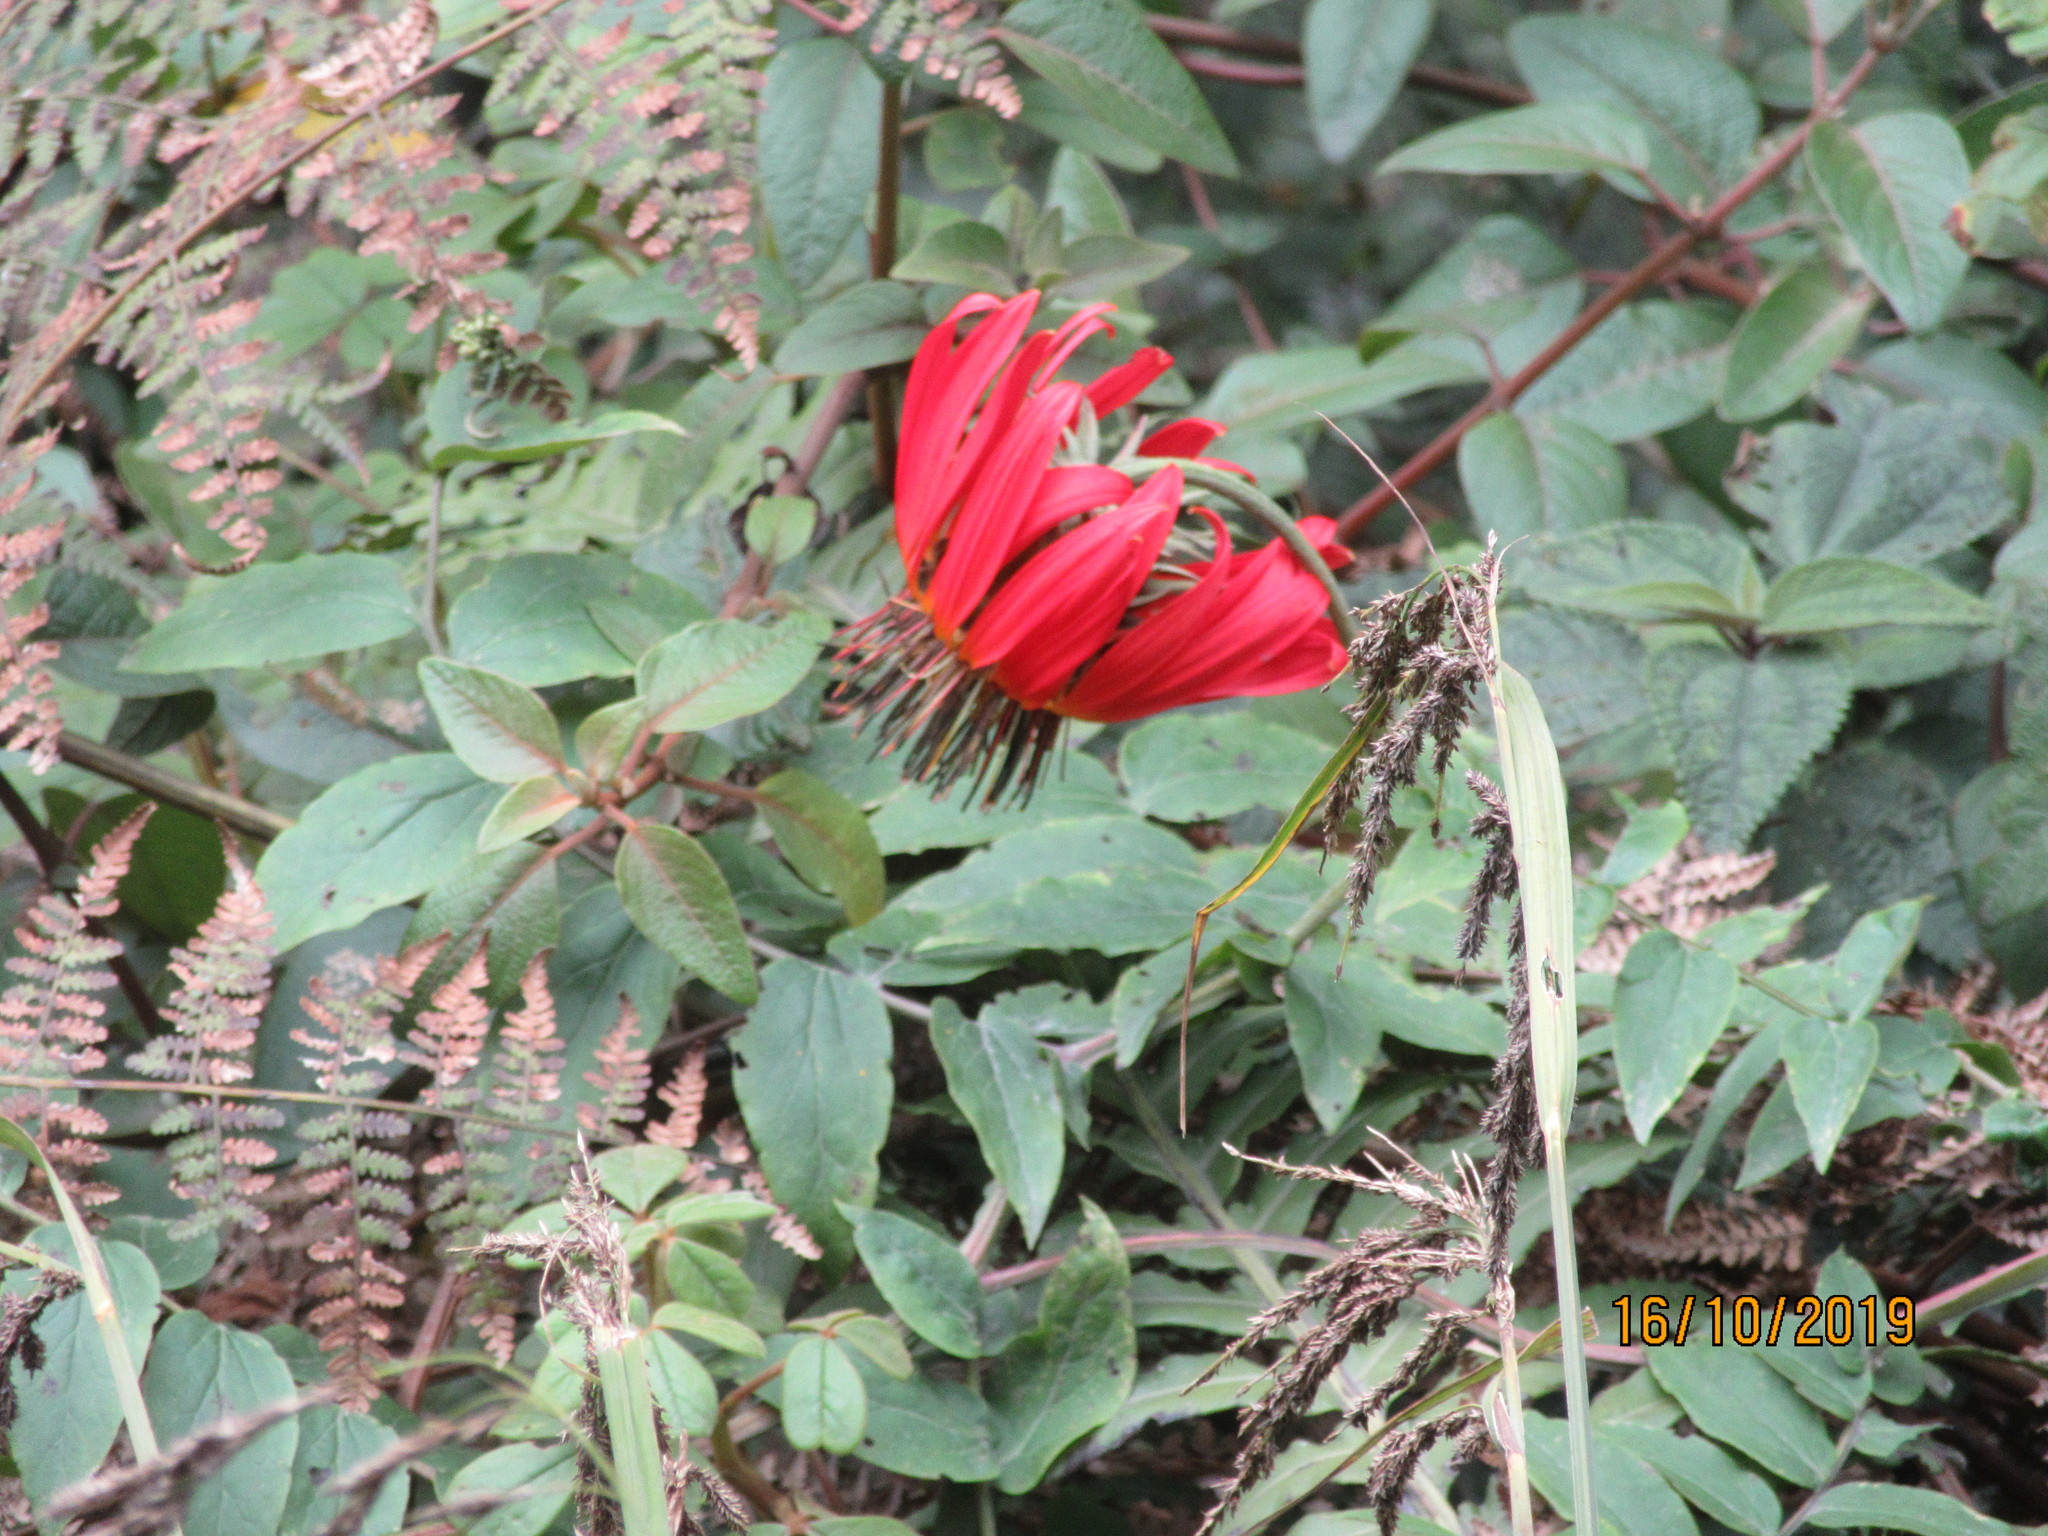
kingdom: Plantae
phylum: Tracheophyta
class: Magnoliopsida
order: Asterales
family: Asteraceae
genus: Mutisia
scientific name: Mutisia lanata
